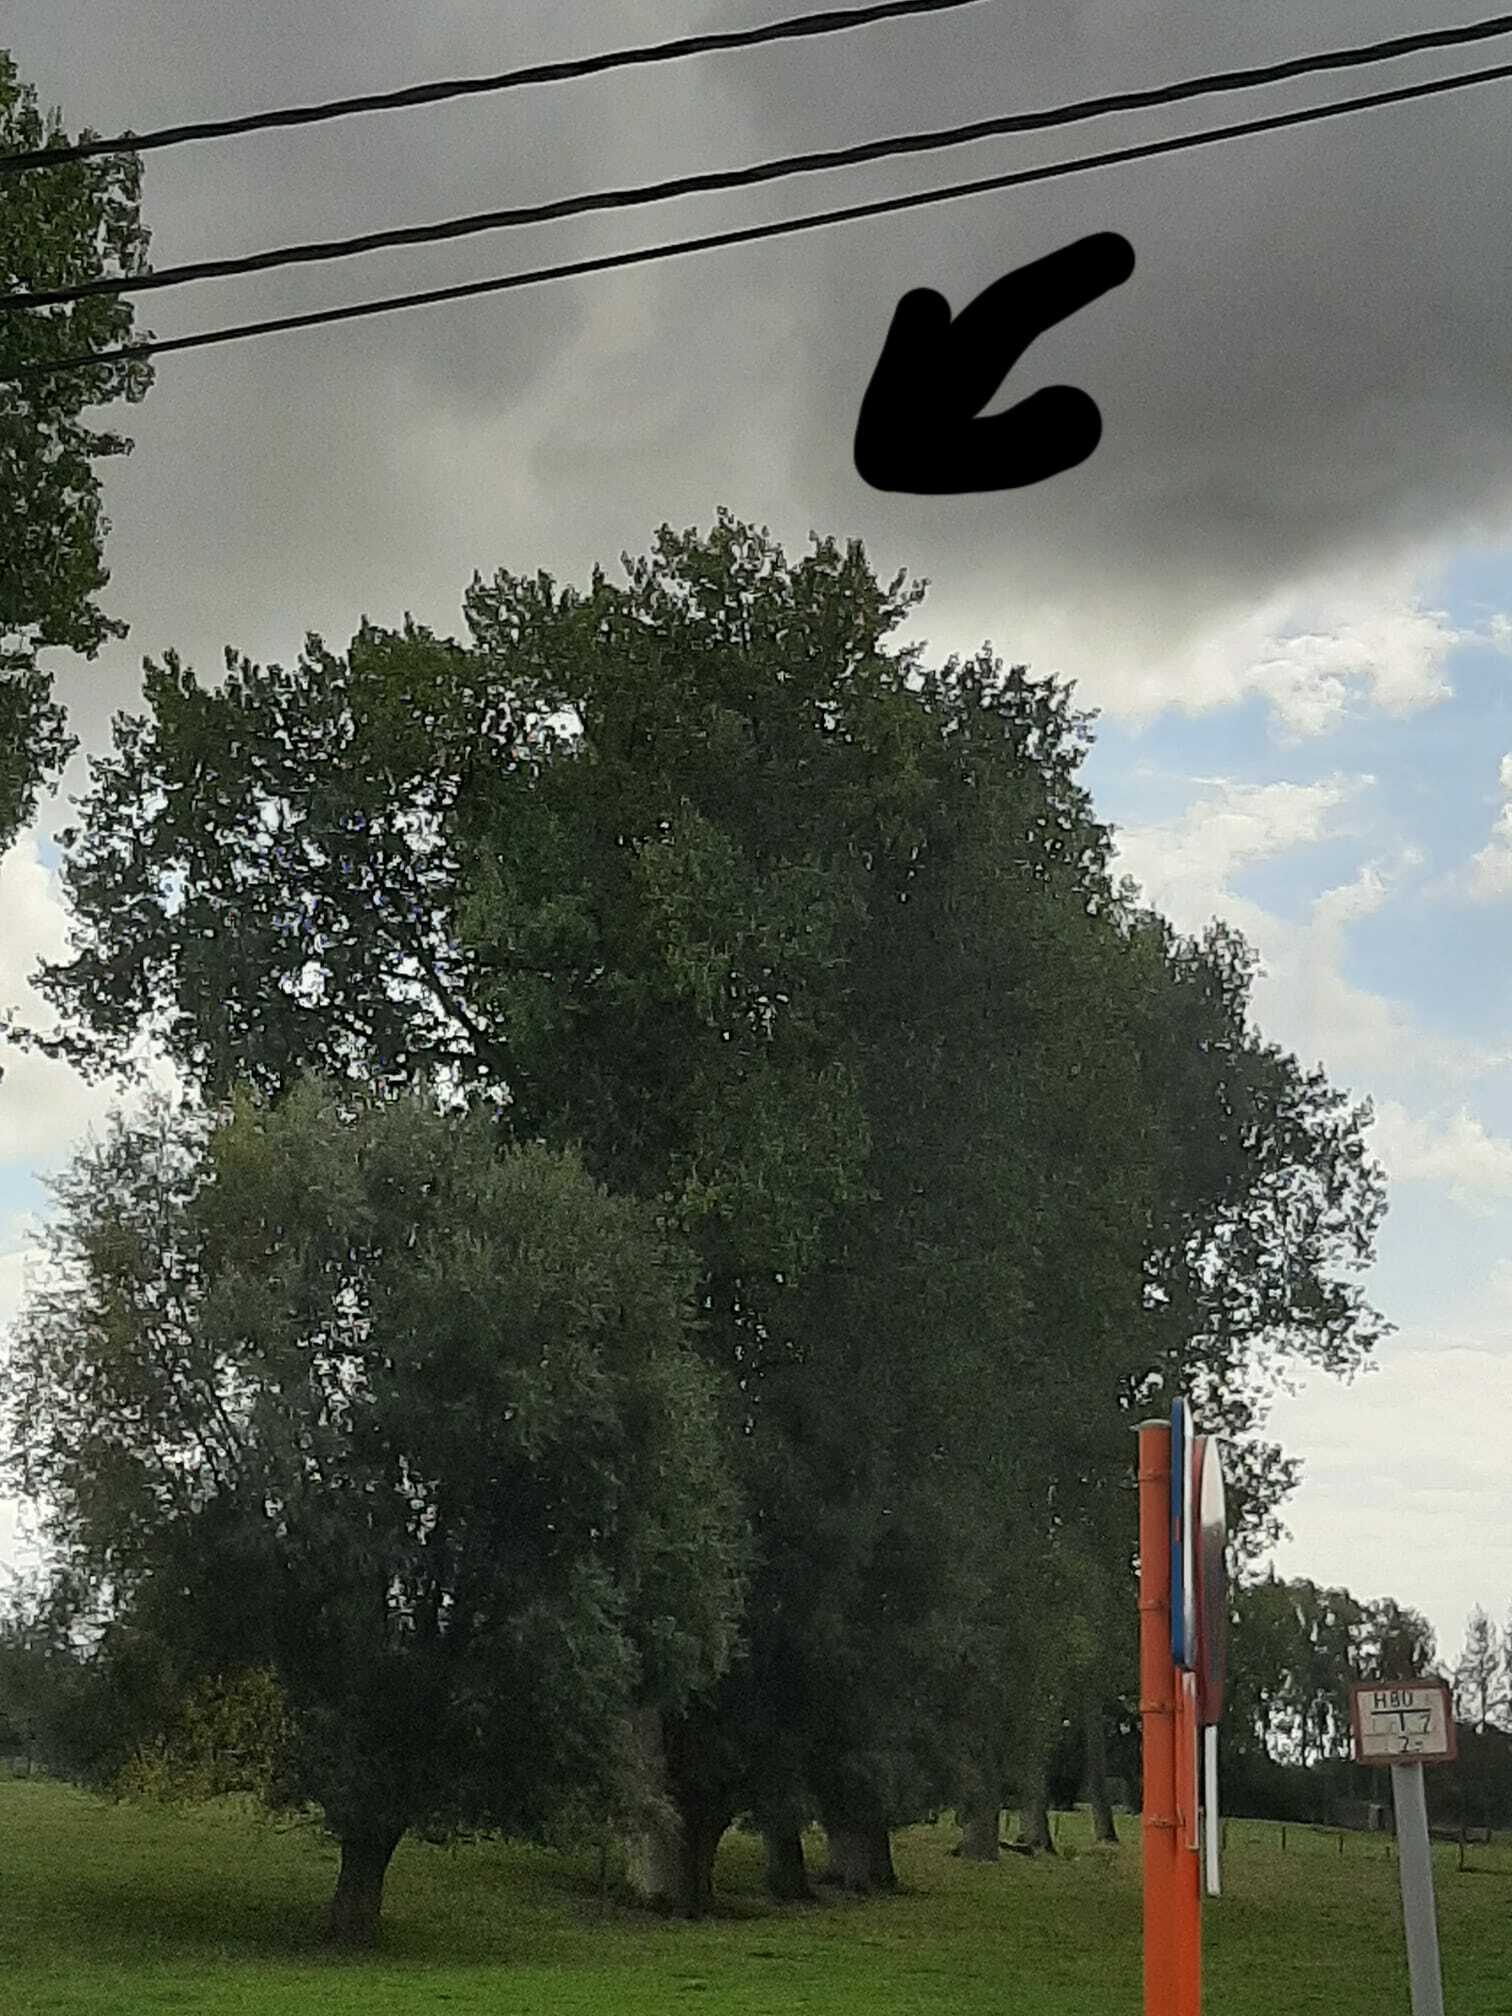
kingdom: Animalia
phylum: Arthropoda
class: Insecta
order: Hymenoptera
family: Vespidae
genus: Vespa
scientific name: Vespa velutina
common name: Asian hornet
